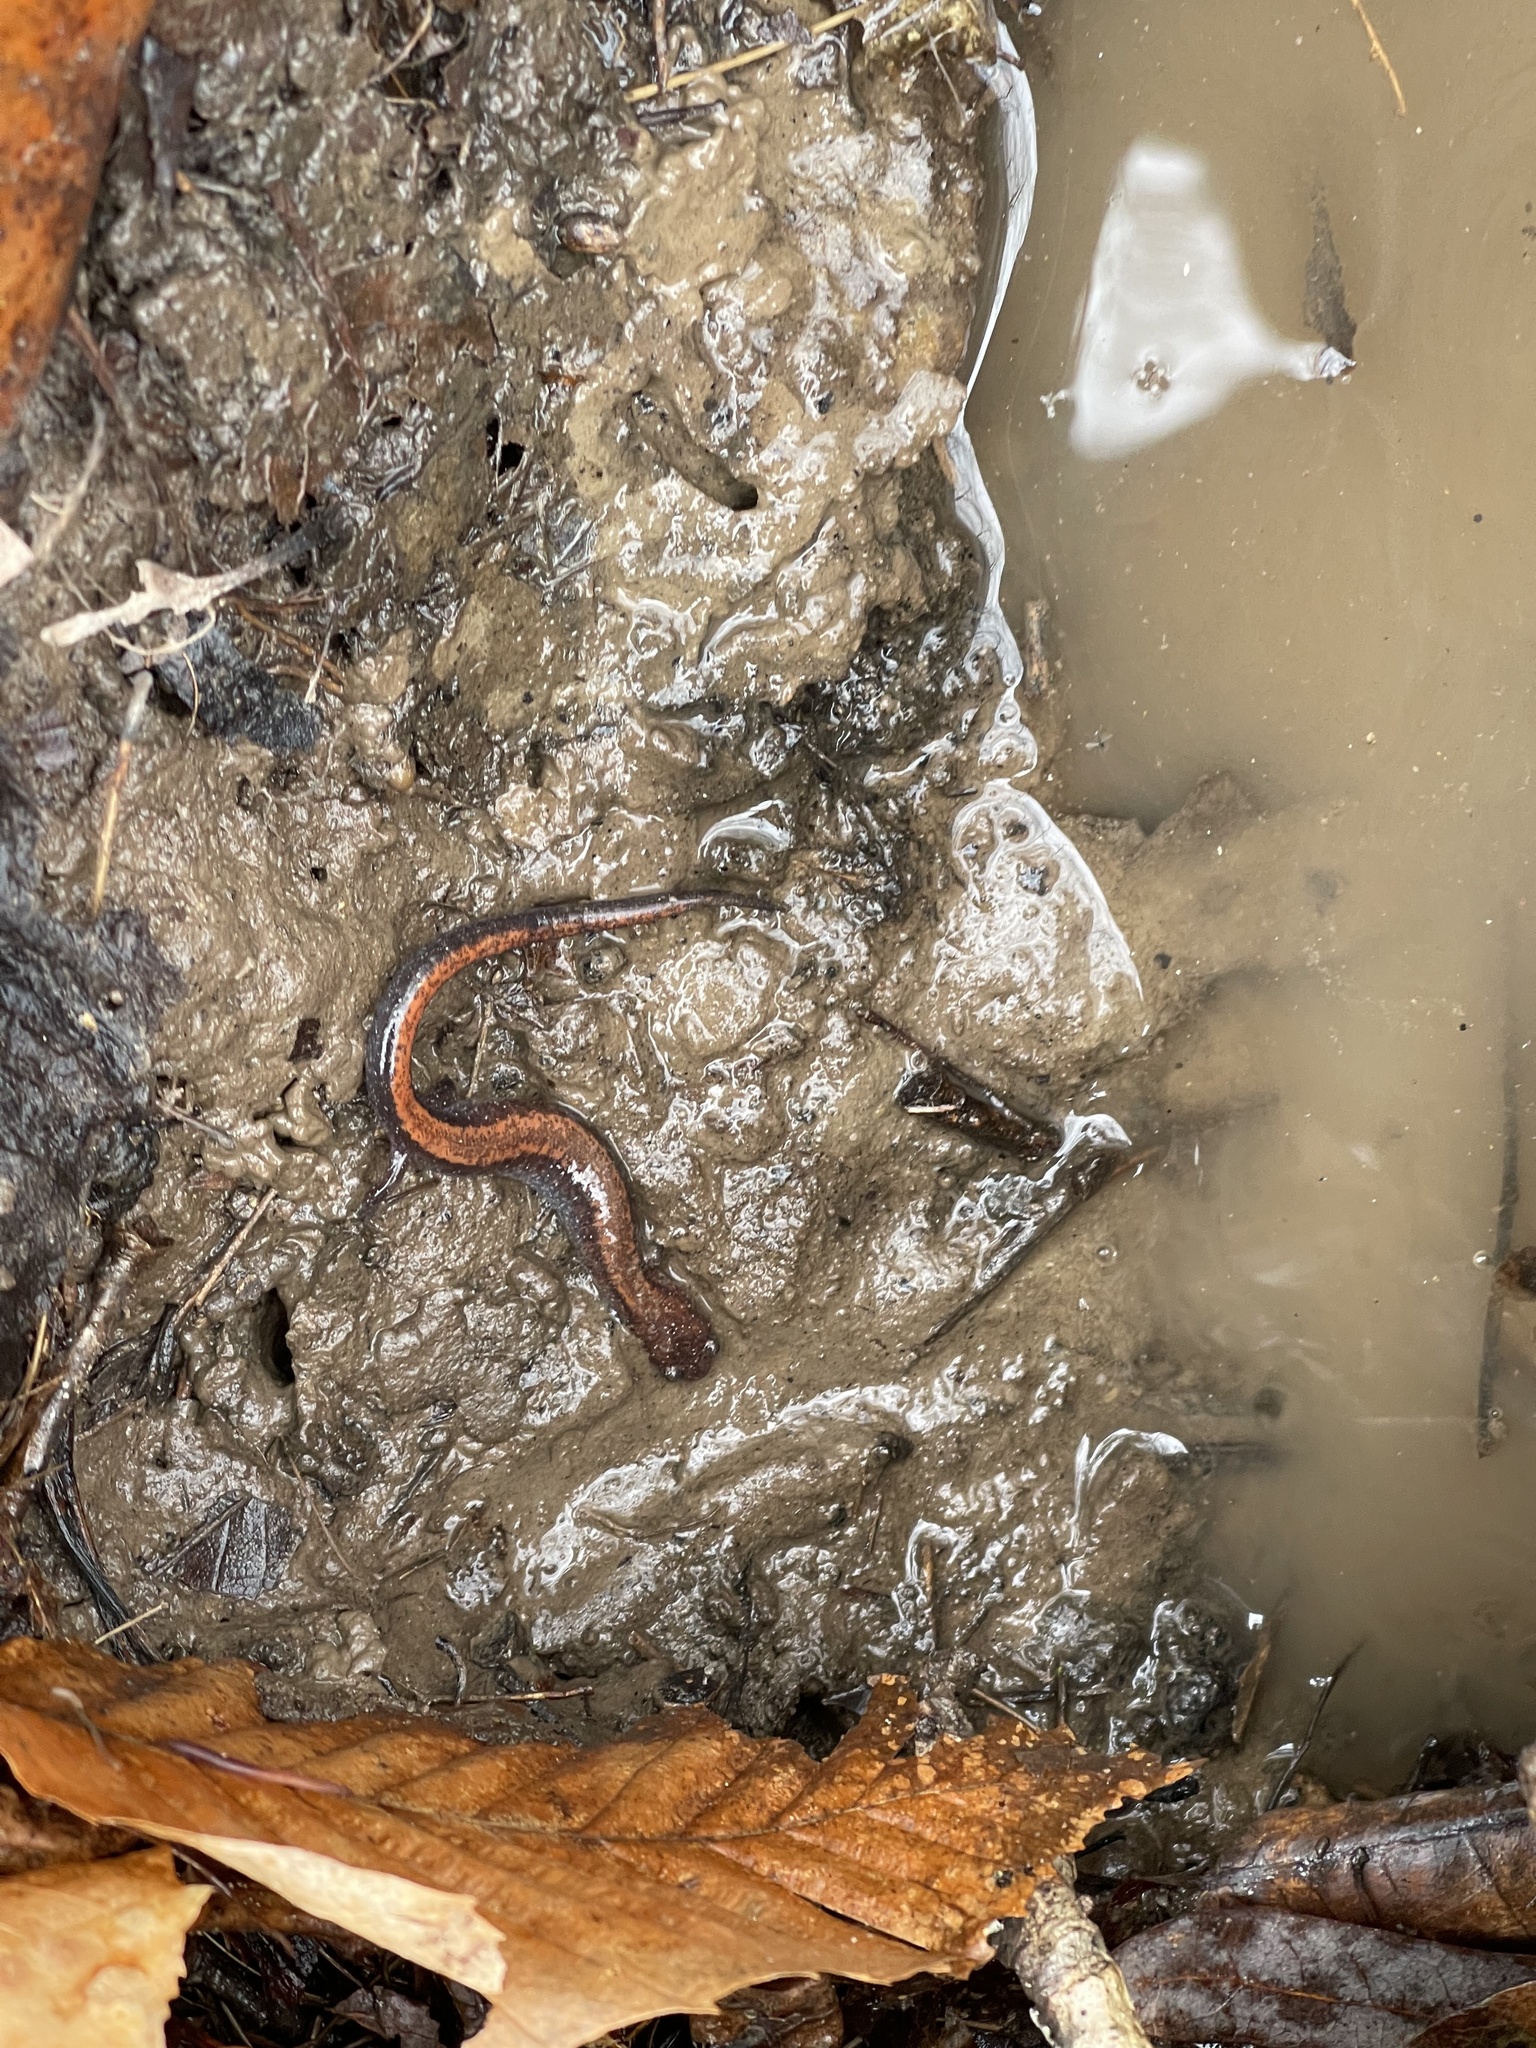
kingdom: Animalia
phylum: Chordata
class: Amphibia
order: Caudata
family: Plethodontidae
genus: Plethodon
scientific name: Plethodon cinereus
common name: Redback salamander
